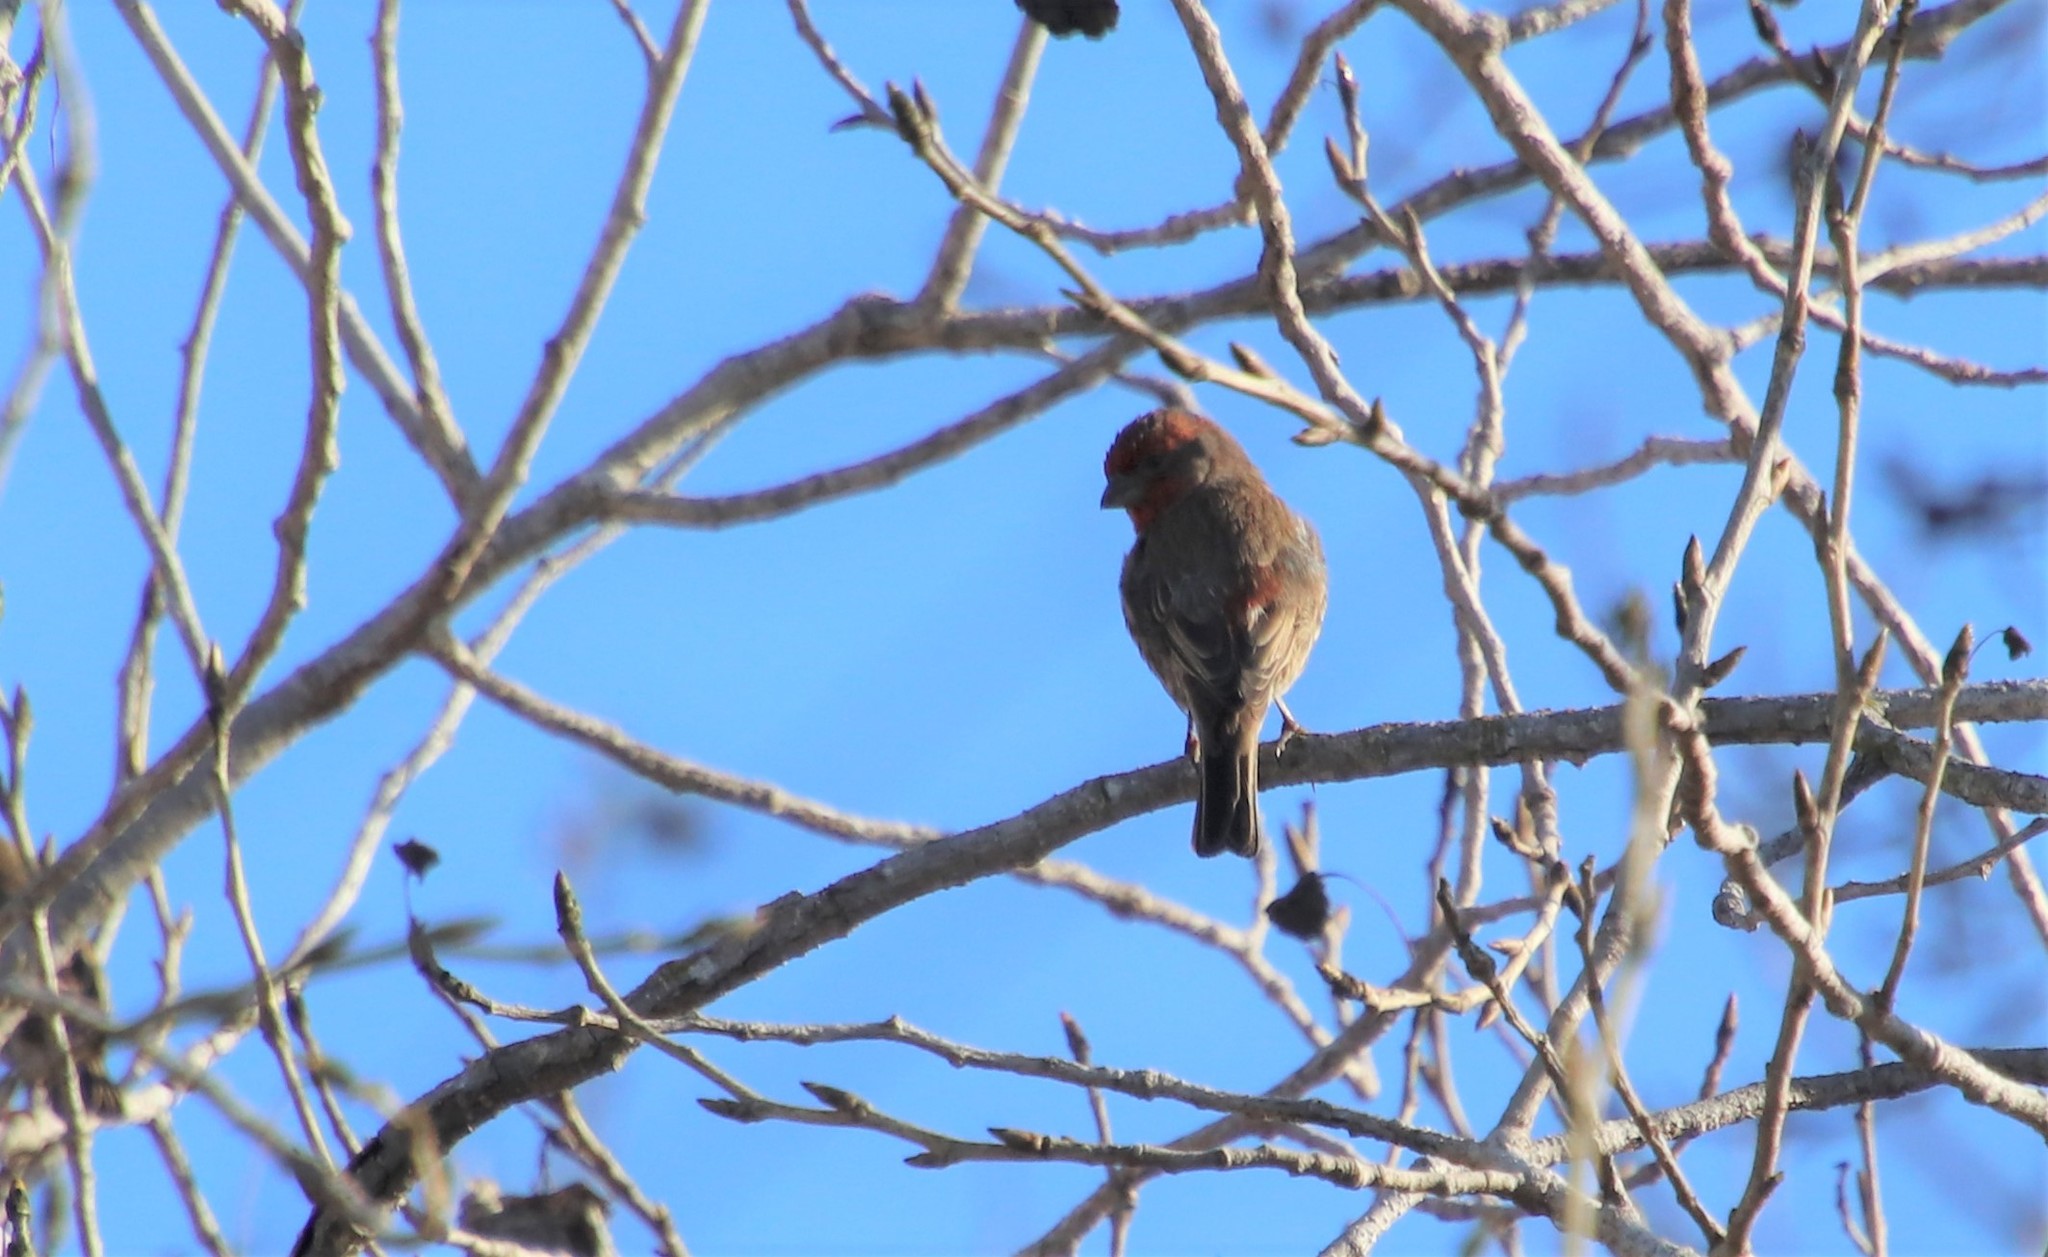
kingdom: Animalia
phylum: Chordata
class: Aves
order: Passeriformes
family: Fringillidae
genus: Haemorhous
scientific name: Haemorhous mexicanus
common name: House finch
